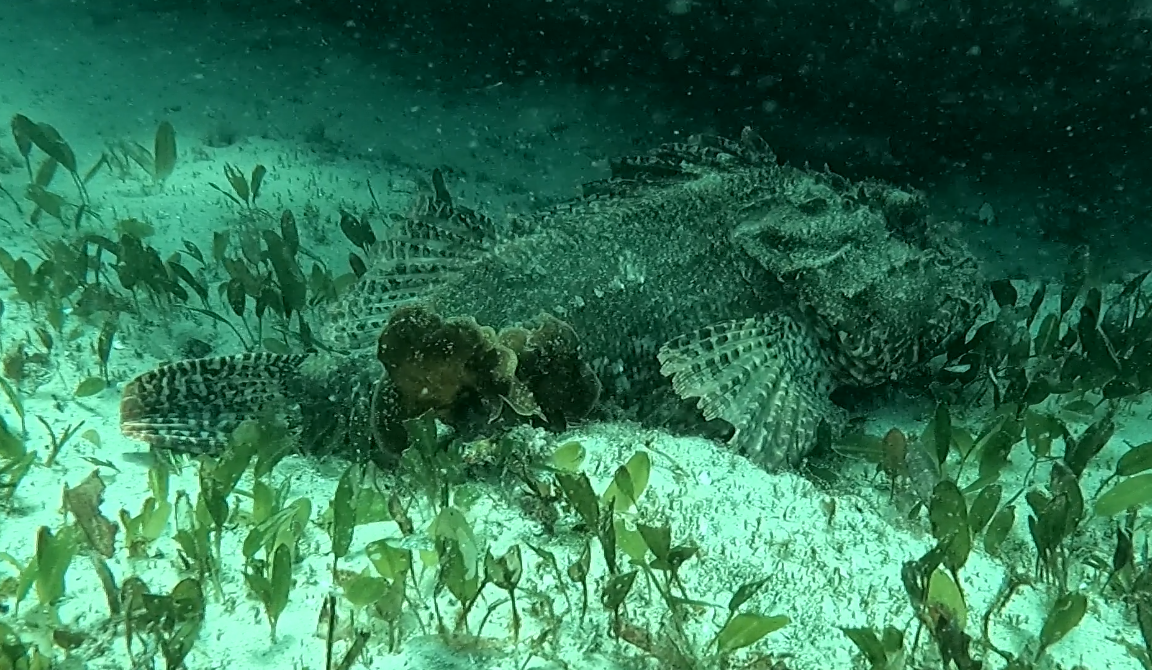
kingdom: Animalia
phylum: Chordata
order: Scorpaeniformes
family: Scorpaenidae
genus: Scorpaena
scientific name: Scorpaena jacksoniensis
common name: Eastern red scorpionfish
